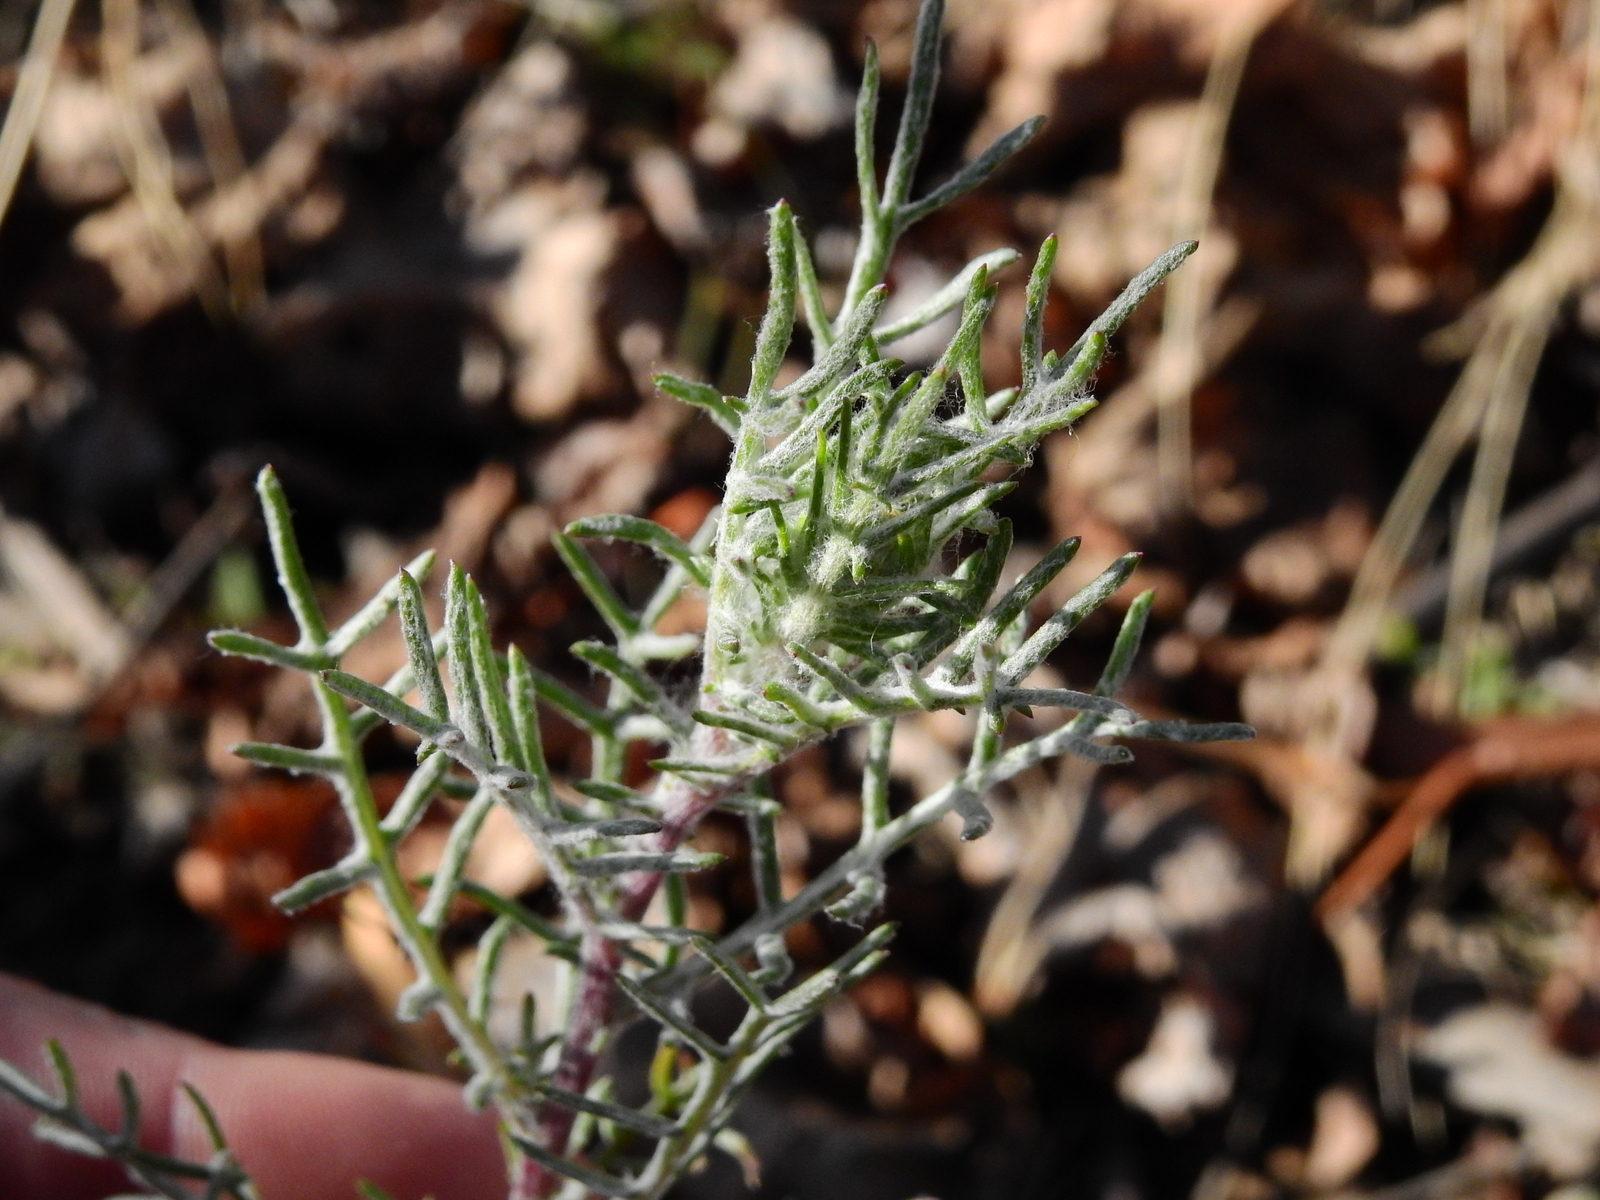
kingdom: Plantae
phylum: Tracheophyta
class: Magnoliopsida
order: Asterales
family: Asteraceae
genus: Senecio
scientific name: Senecio goldsackii
